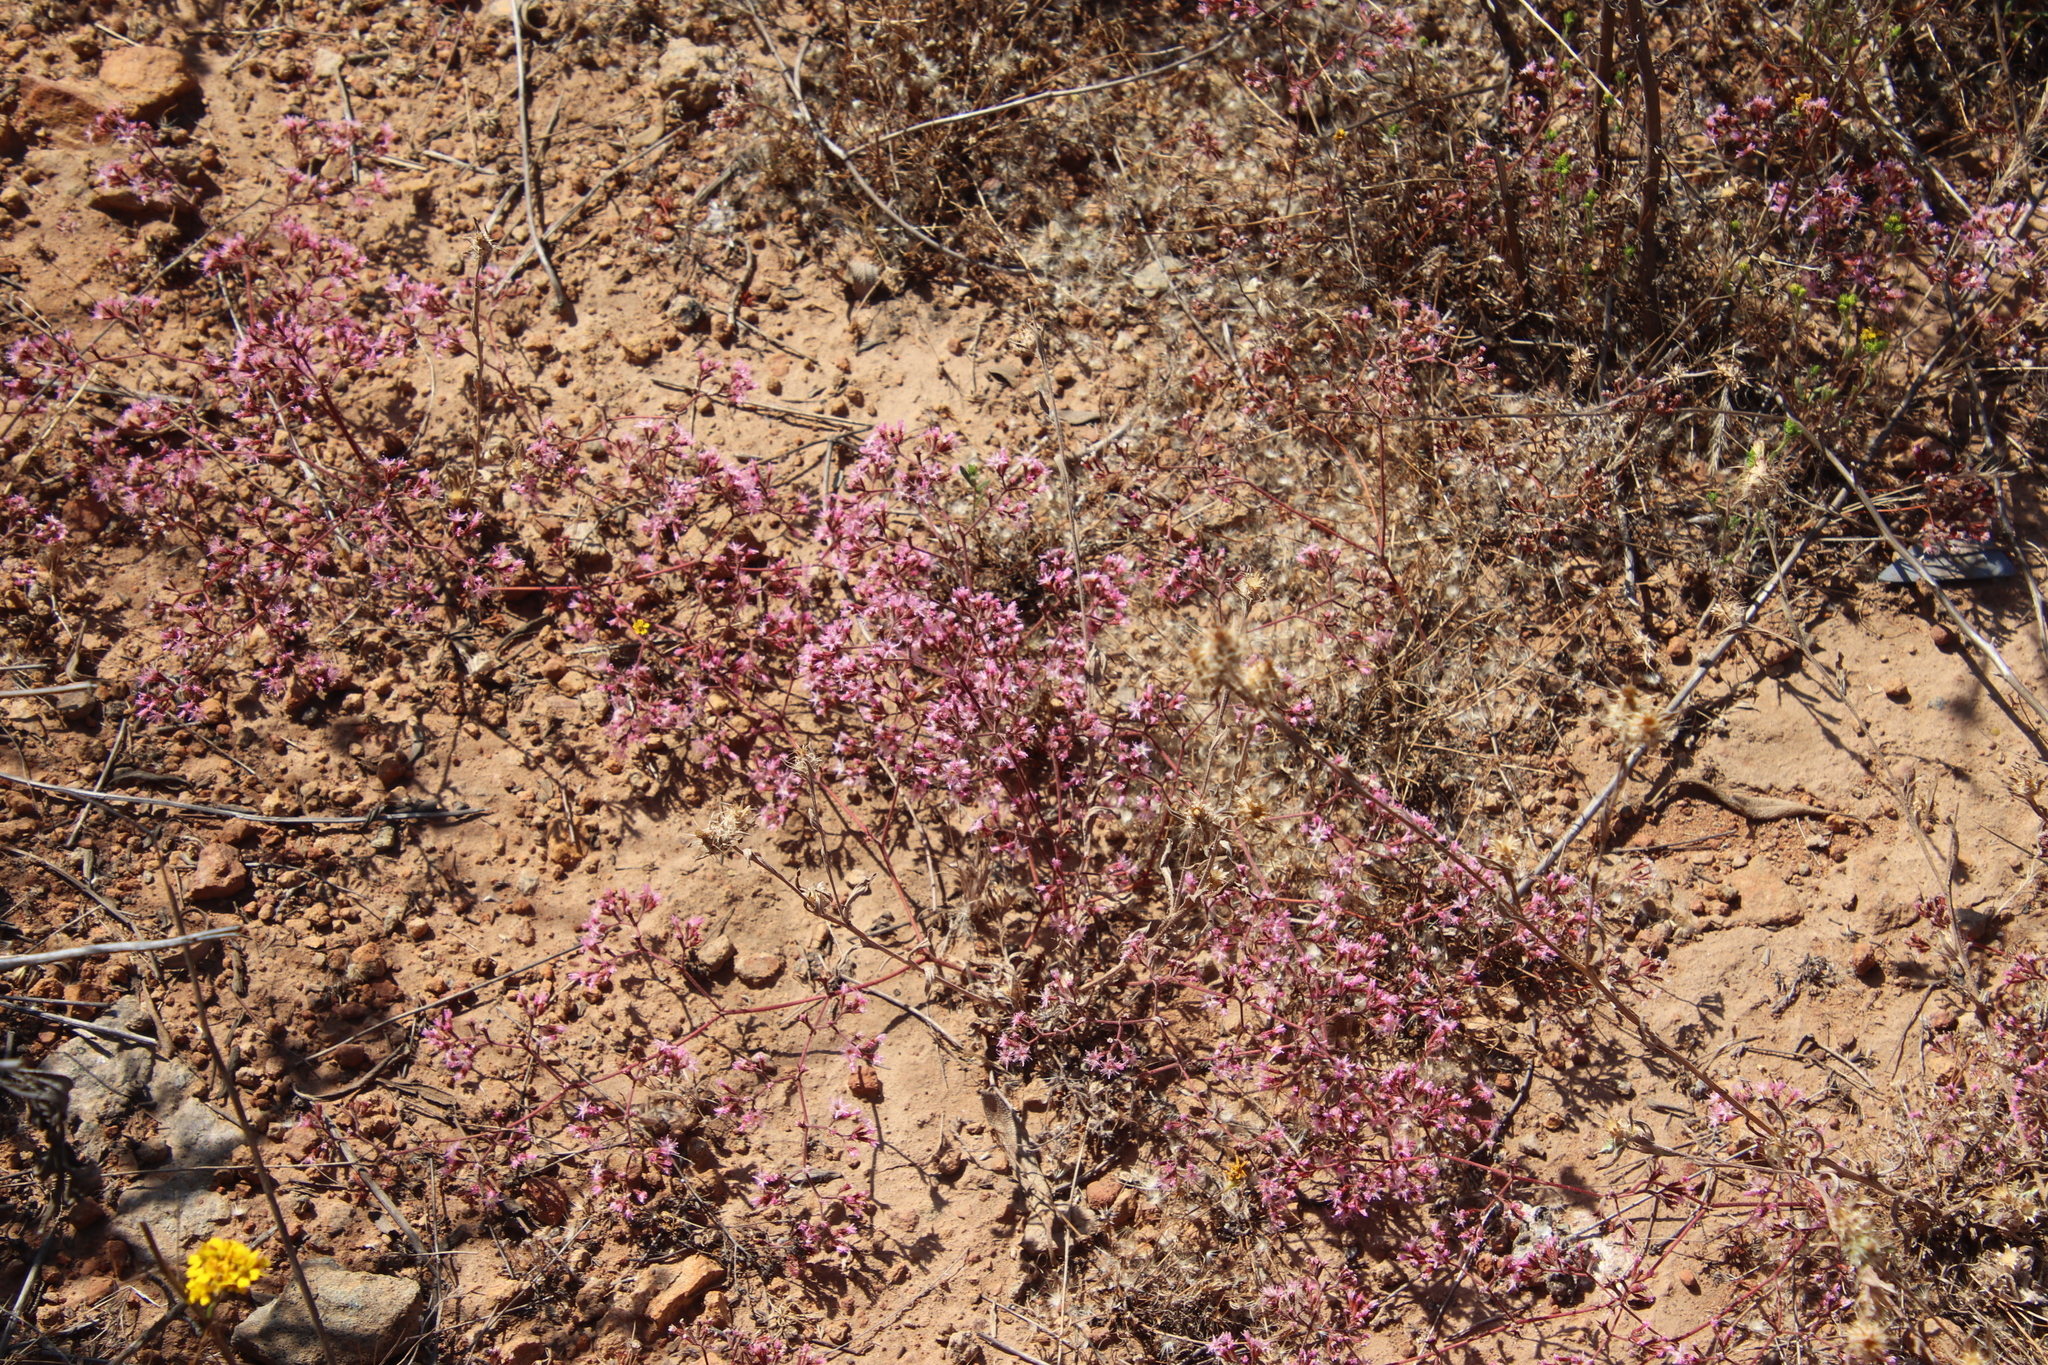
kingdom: Plantae
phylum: Tracheophyta
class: Magnoliopsida
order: Caryophyllales
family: Polygonaceae
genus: Chorizanthe
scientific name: Chorizanthe fimbriata
